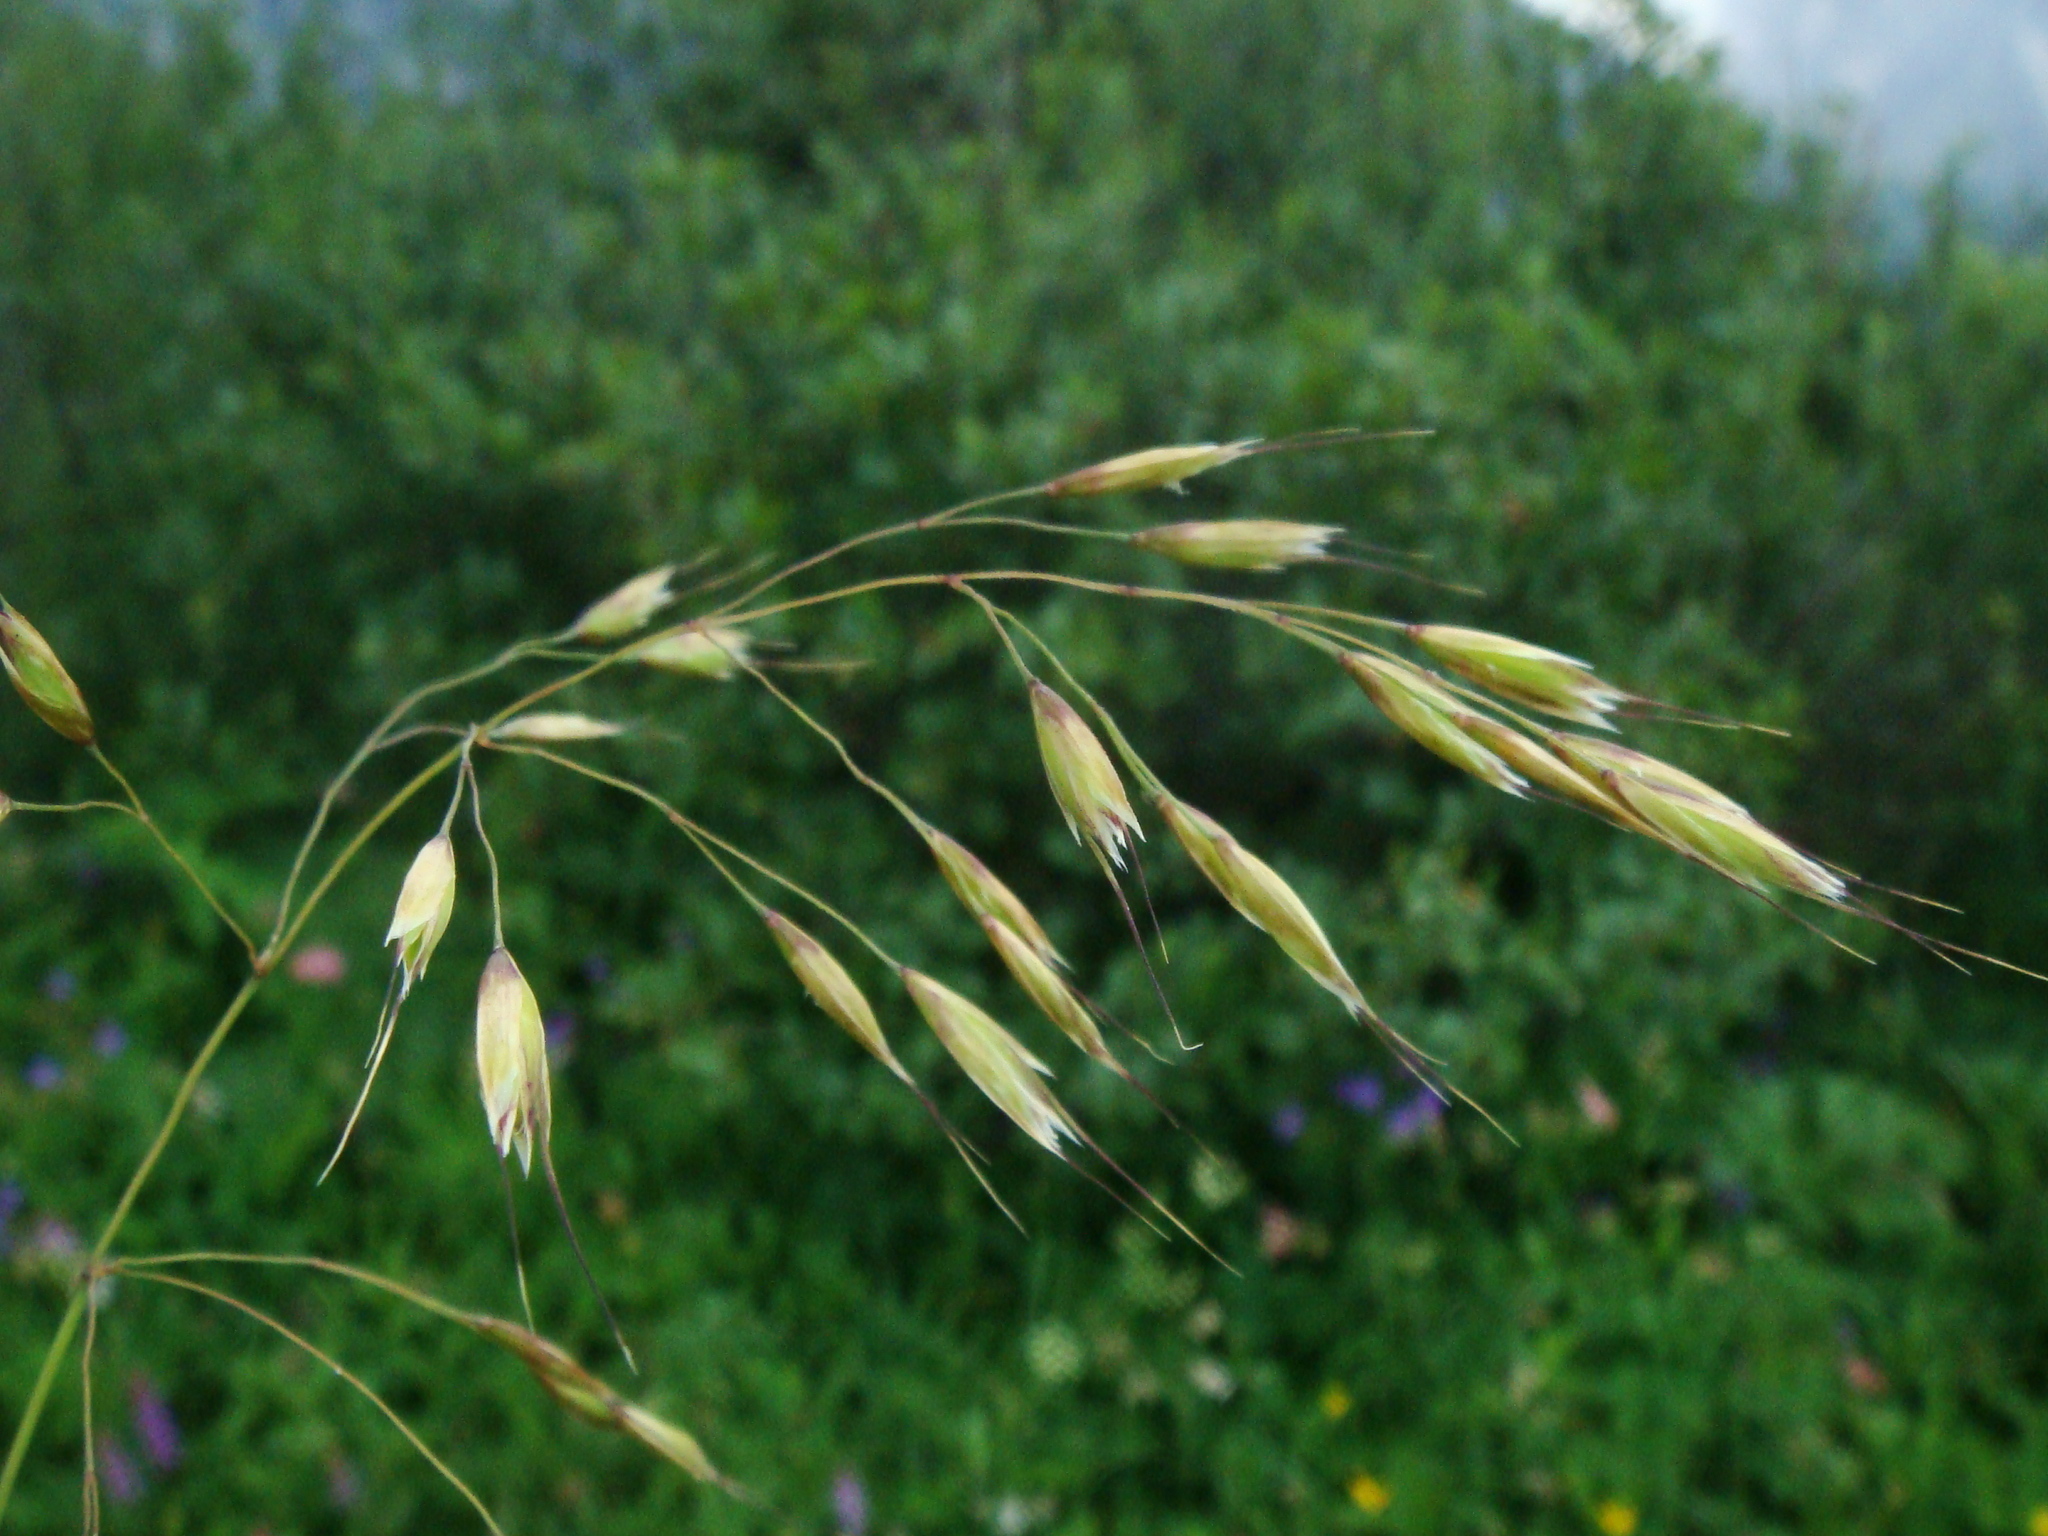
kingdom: Plantae
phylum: Tracheophyta
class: Liliopsida
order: Poales
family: Poaceae
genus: Helictotrichon
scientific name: Helictotrichon parlatorei
